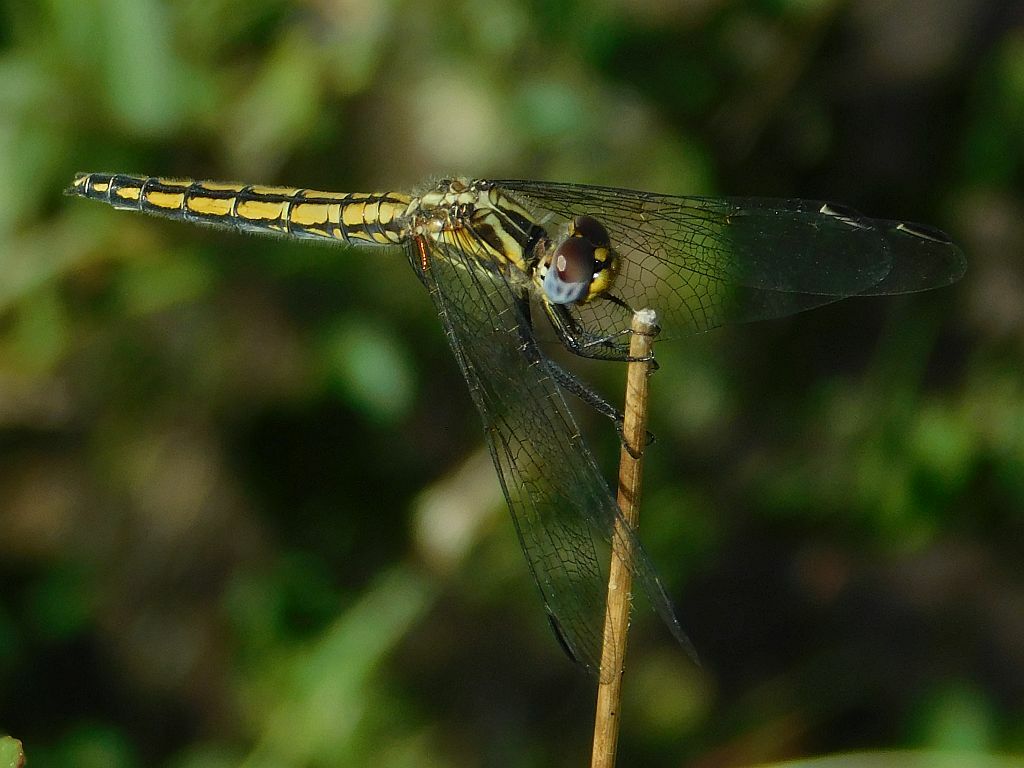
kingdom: Animalia
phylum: Arthropoda
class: Insecta
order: Odonata
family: Libellulidae
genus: Trithemis
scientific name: Trithemis furva
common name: Dark dropwing
